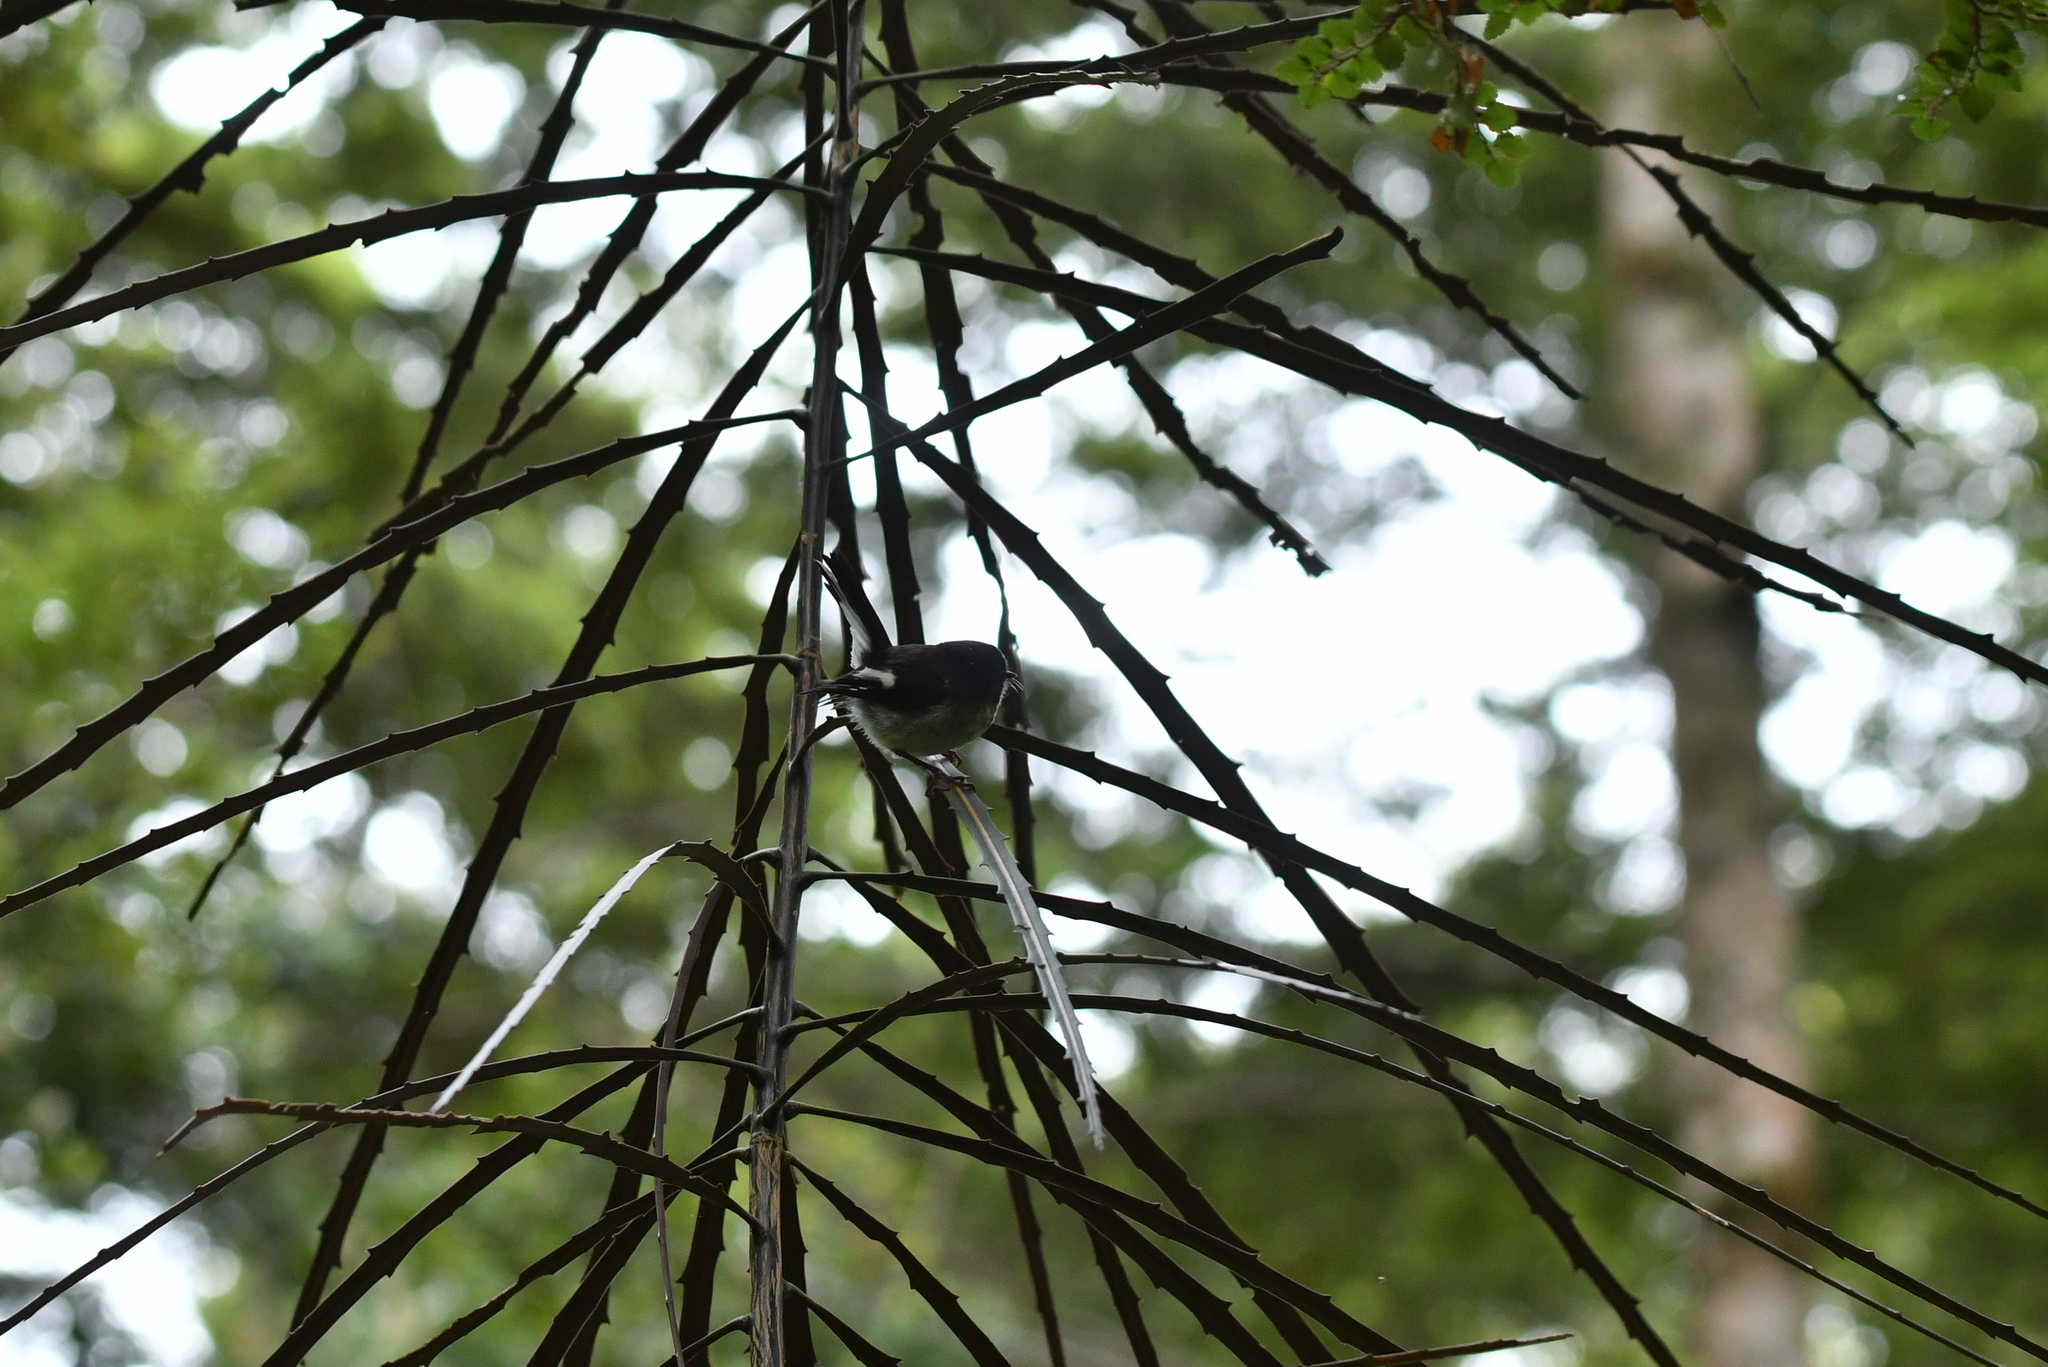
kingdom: Animalia
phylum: Chordata
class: Aves
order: Passeriformes
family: Petroicidae
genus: Petroica
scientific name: Petroica macrocephala
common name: Tomtit
